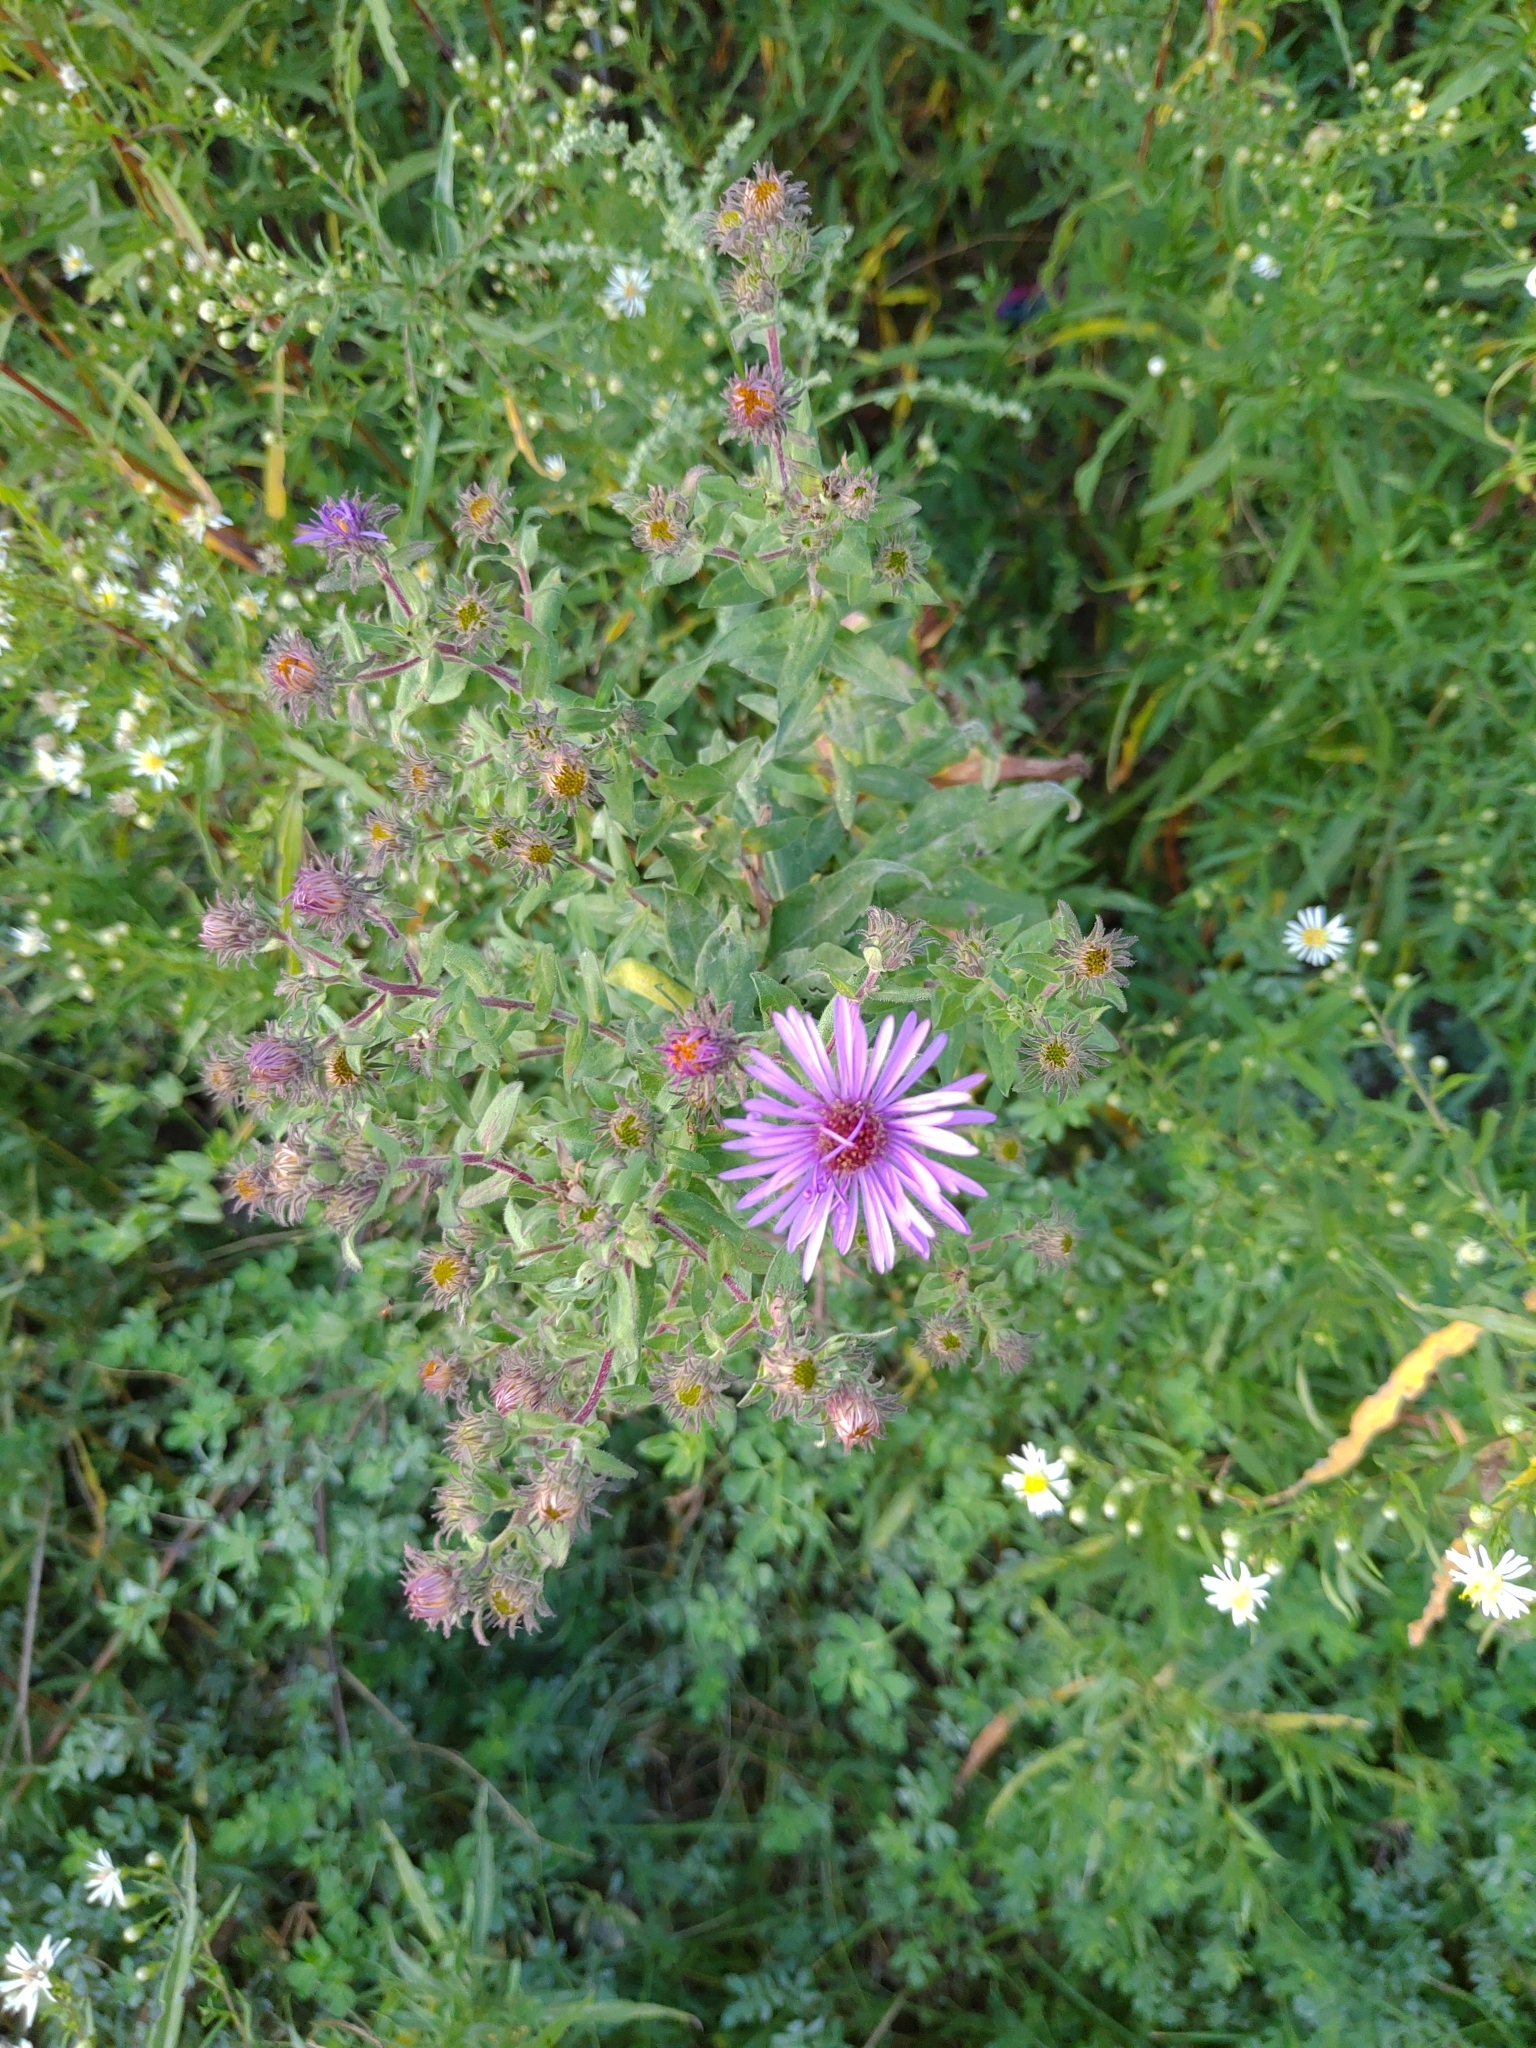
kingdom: Plantae
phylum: Tracheophyta
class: Magnoliopsida
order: Asterales
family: Asteraceae
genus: Symphyotrichum
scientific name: Symphyotrichum novae-angliae
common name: Michaelmas daisy
